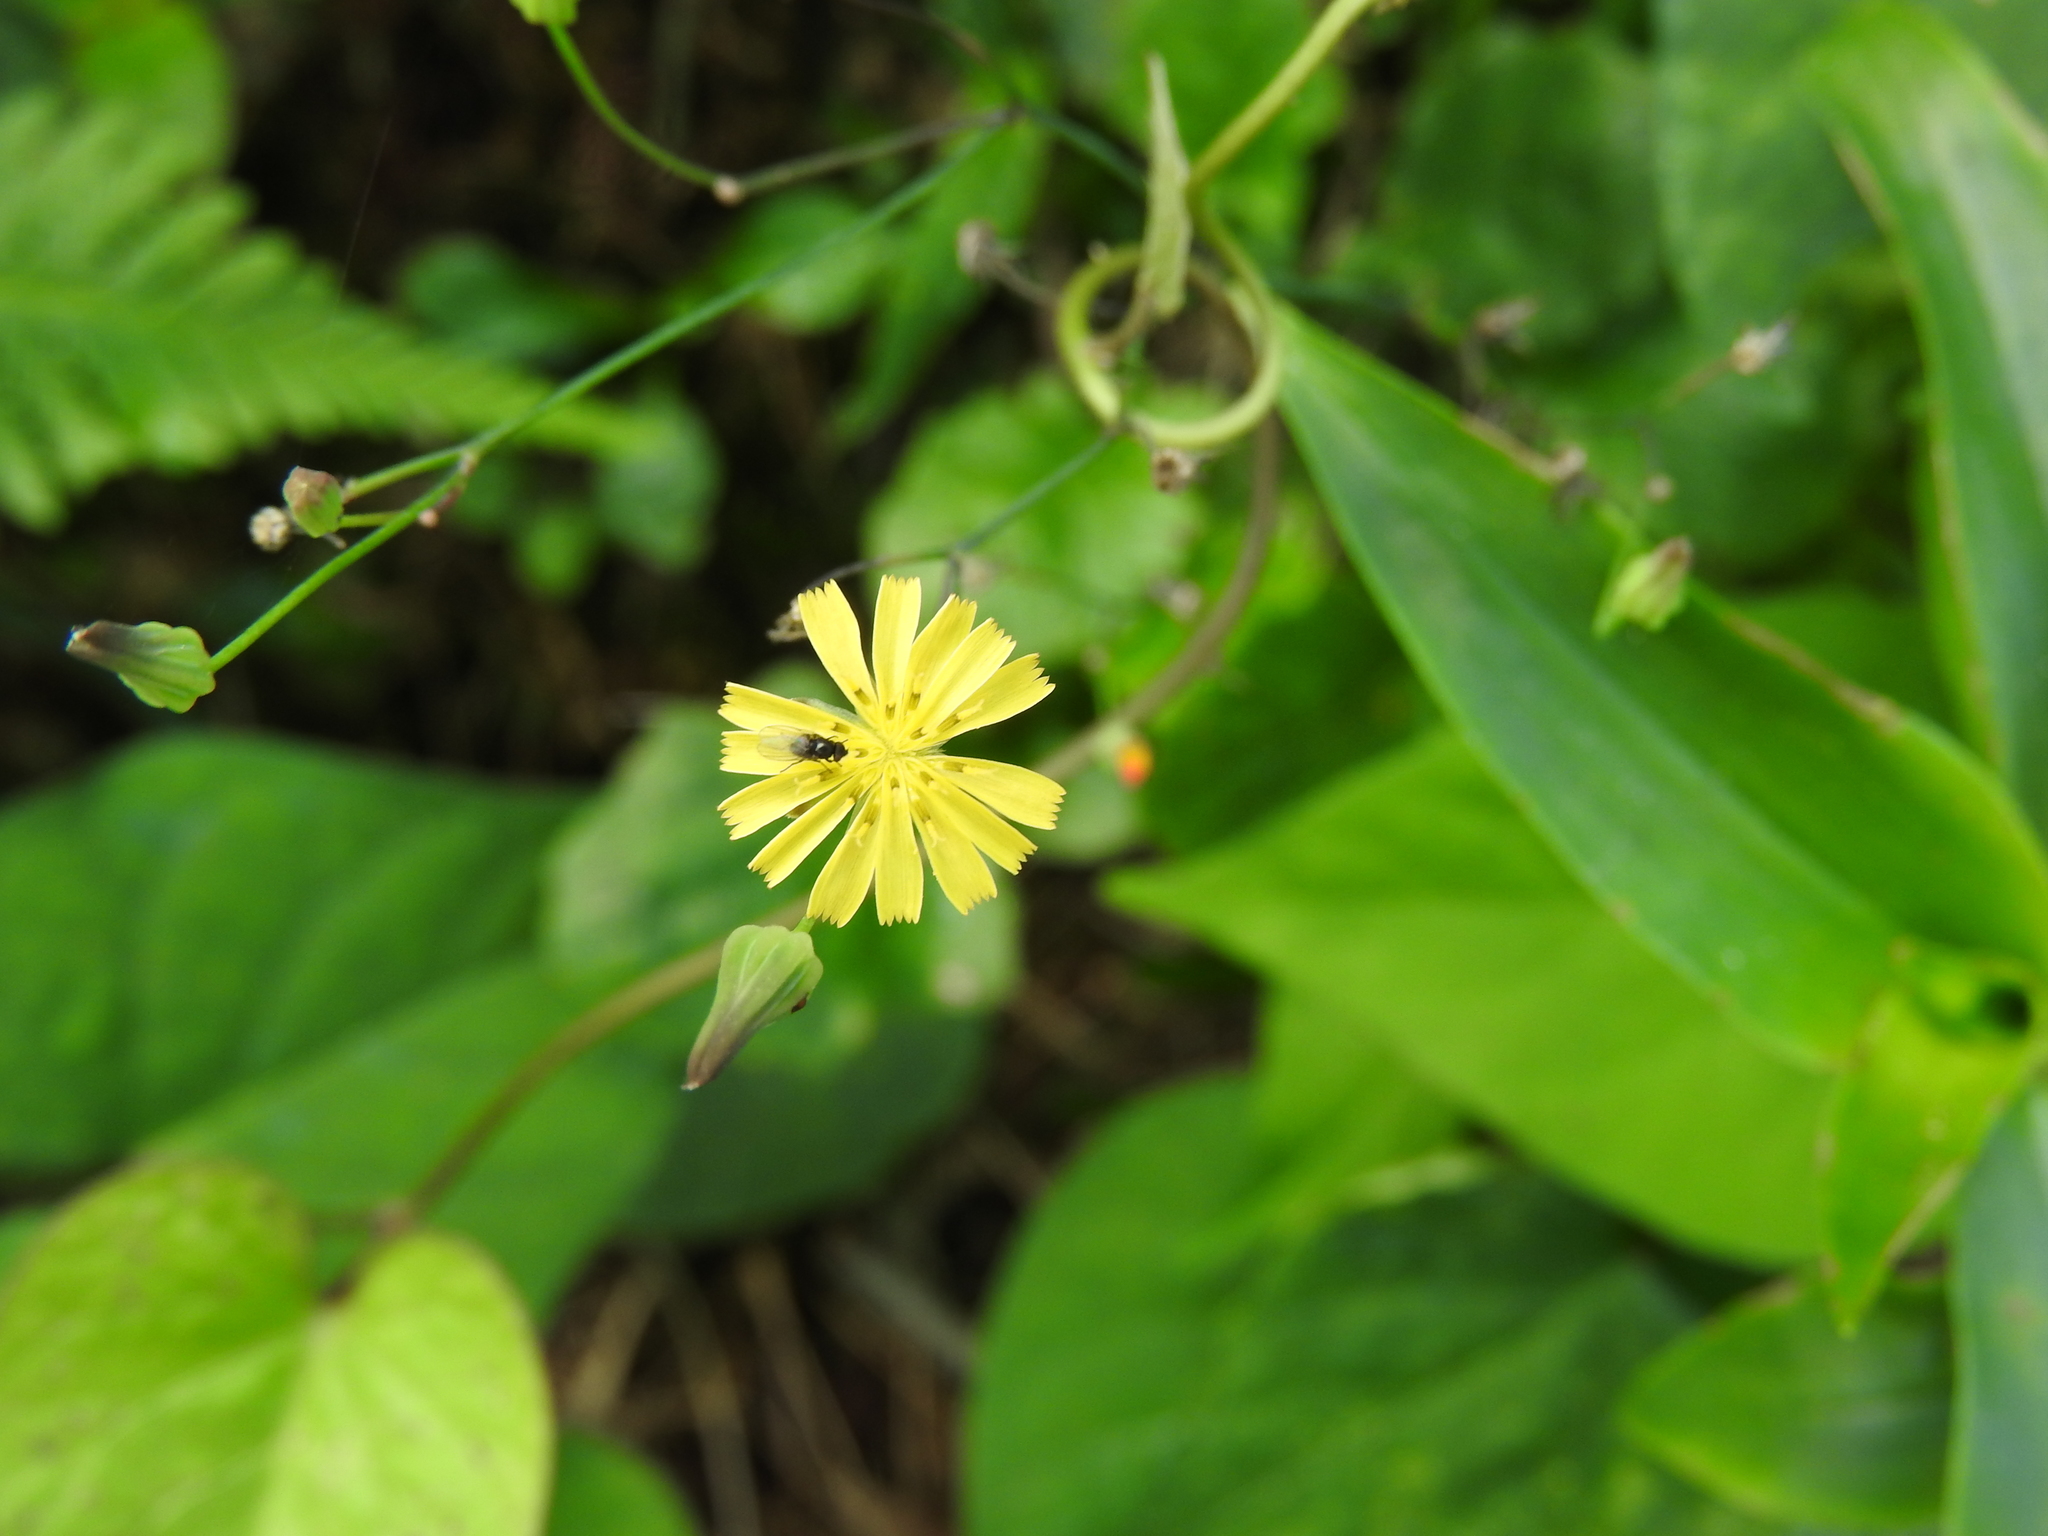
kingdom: Plantae
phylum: Tracheophyta
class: Magnoliopsida
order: Asterales
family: Asteraceae
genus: Youngia
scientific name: Youngia japonica
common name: Oriental false hawksbeard
